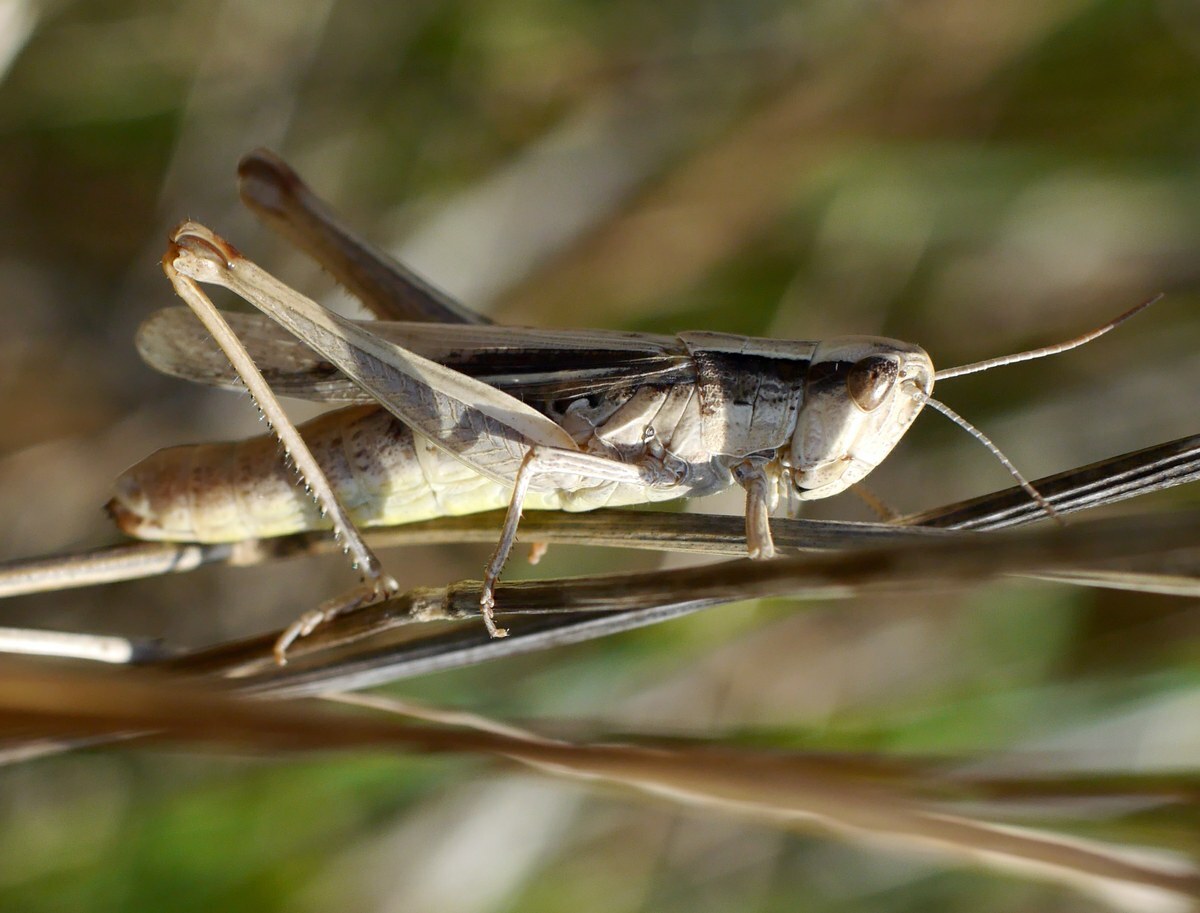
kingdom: Animalia
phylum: Arthropoda
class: Insecta
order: Orthoptera
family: Acrididae
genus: Euchorthippus
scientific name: Euchorthippus pulvinatus
